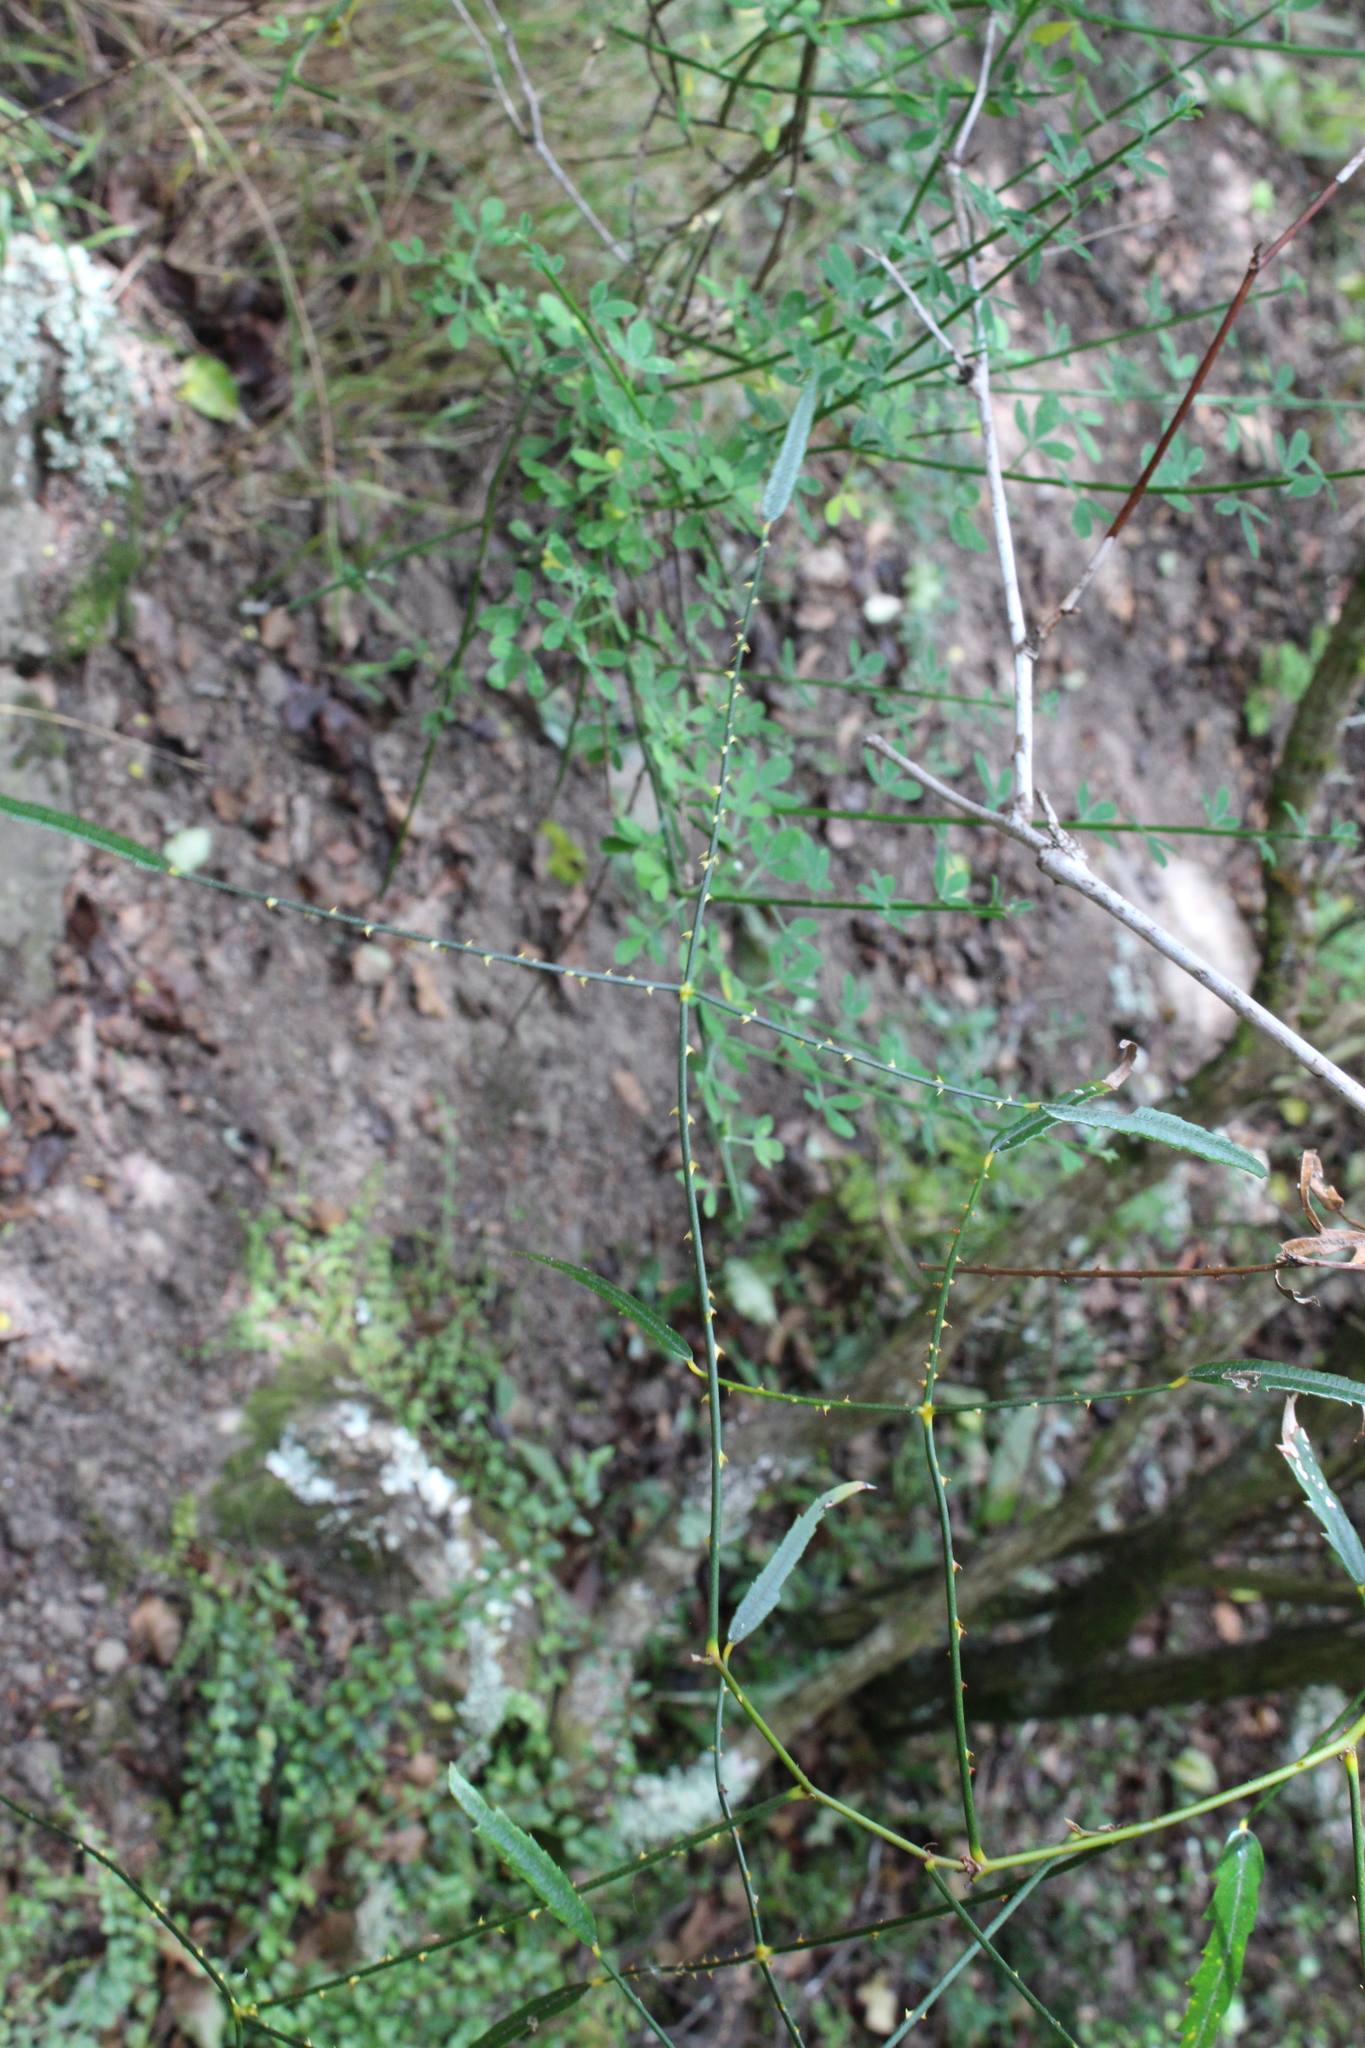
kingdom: Plantae
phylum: Tracheophyta
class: Magnoliopsida
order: Rosales
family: Rosaceae
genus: Rubus
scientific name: Rubus squarrosus
